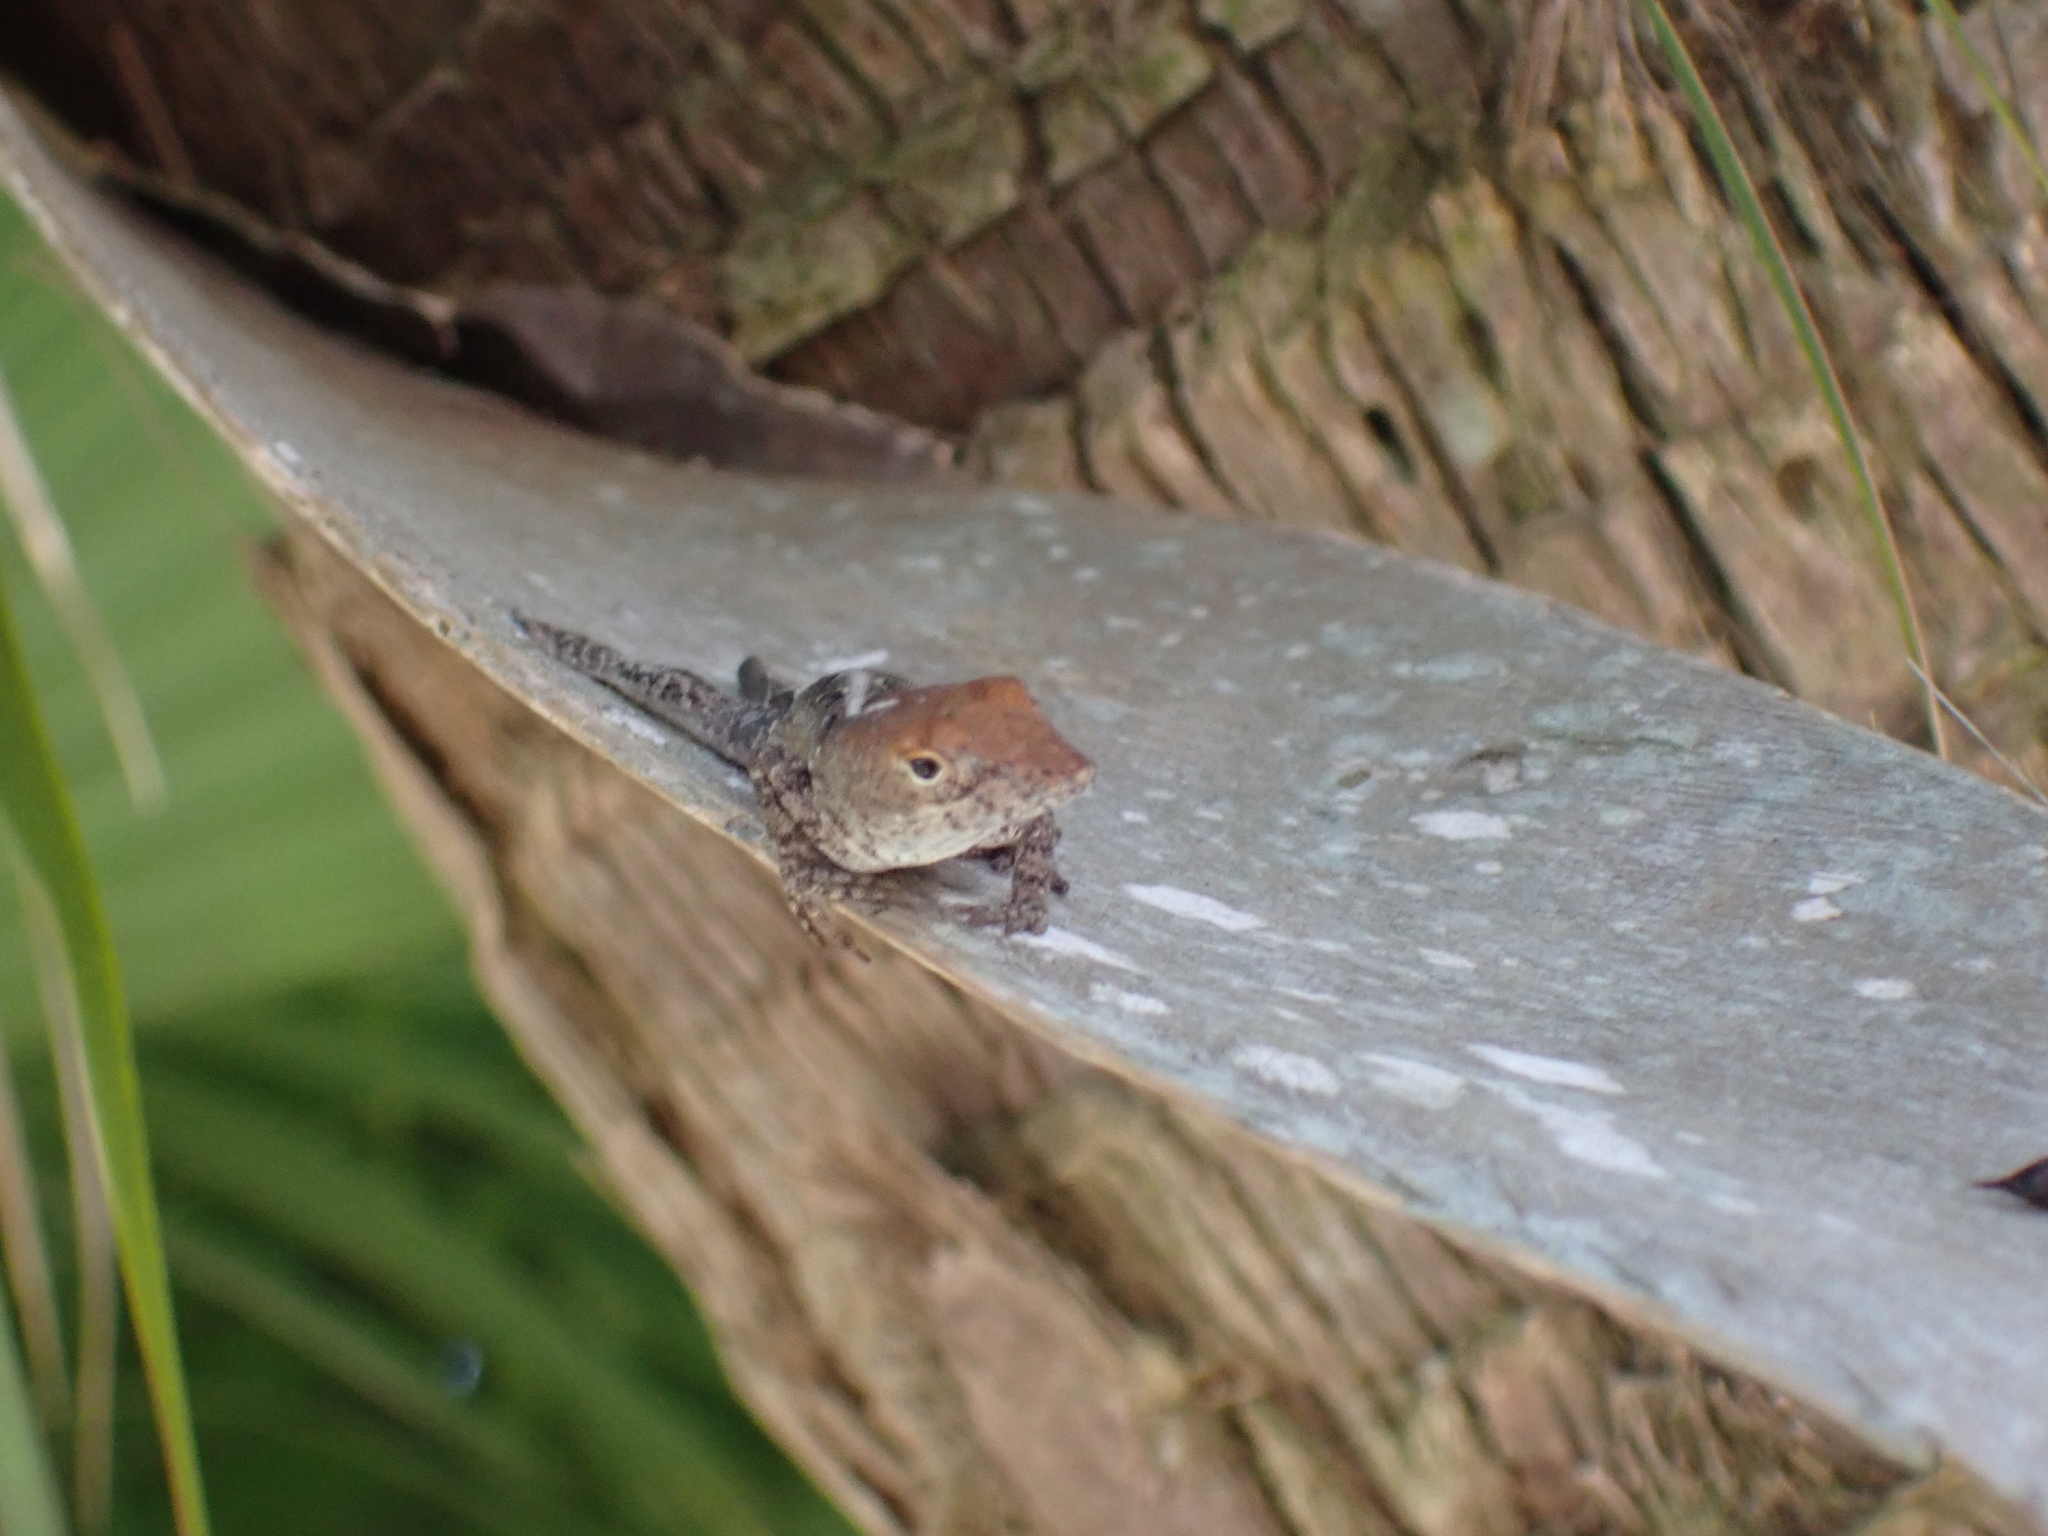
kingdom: Animalia
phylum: Chordata
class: Squamata
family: Dactyloidae
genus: Anolis
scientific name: Anolis sagrei
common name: Brown anole
